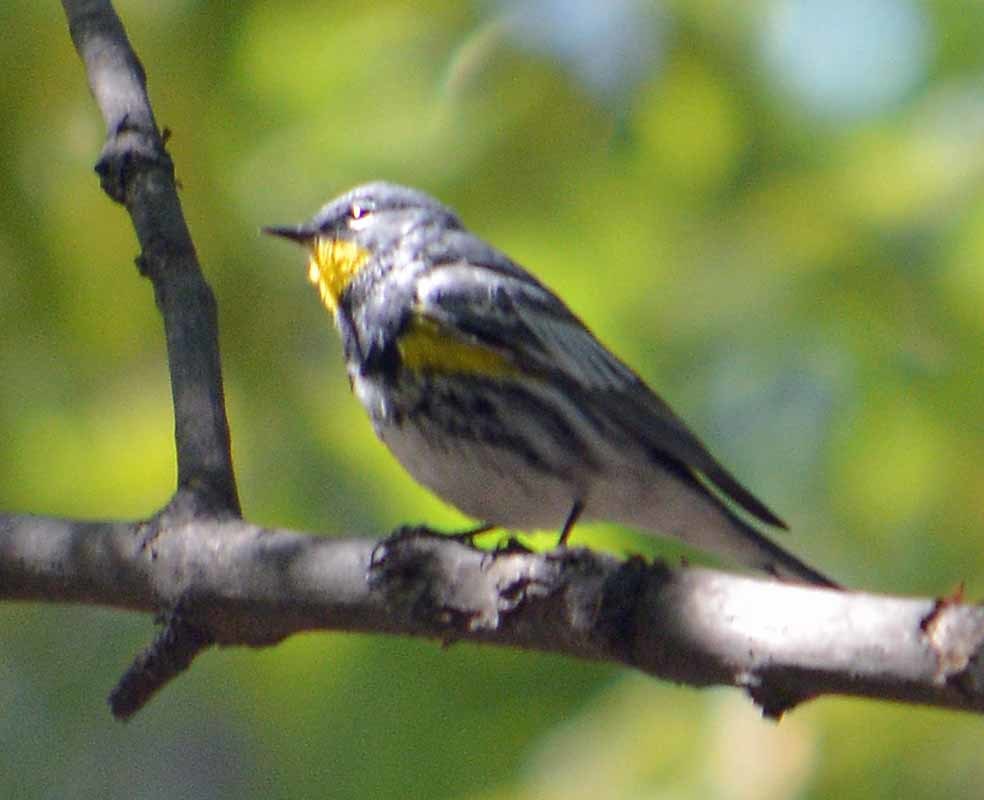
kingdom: Animalia
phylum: Chordata
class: Aves
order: Passeriformes
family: Parulidae
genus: Setophaga
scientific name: Setophaga auduboni
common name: Audubon's warbler
